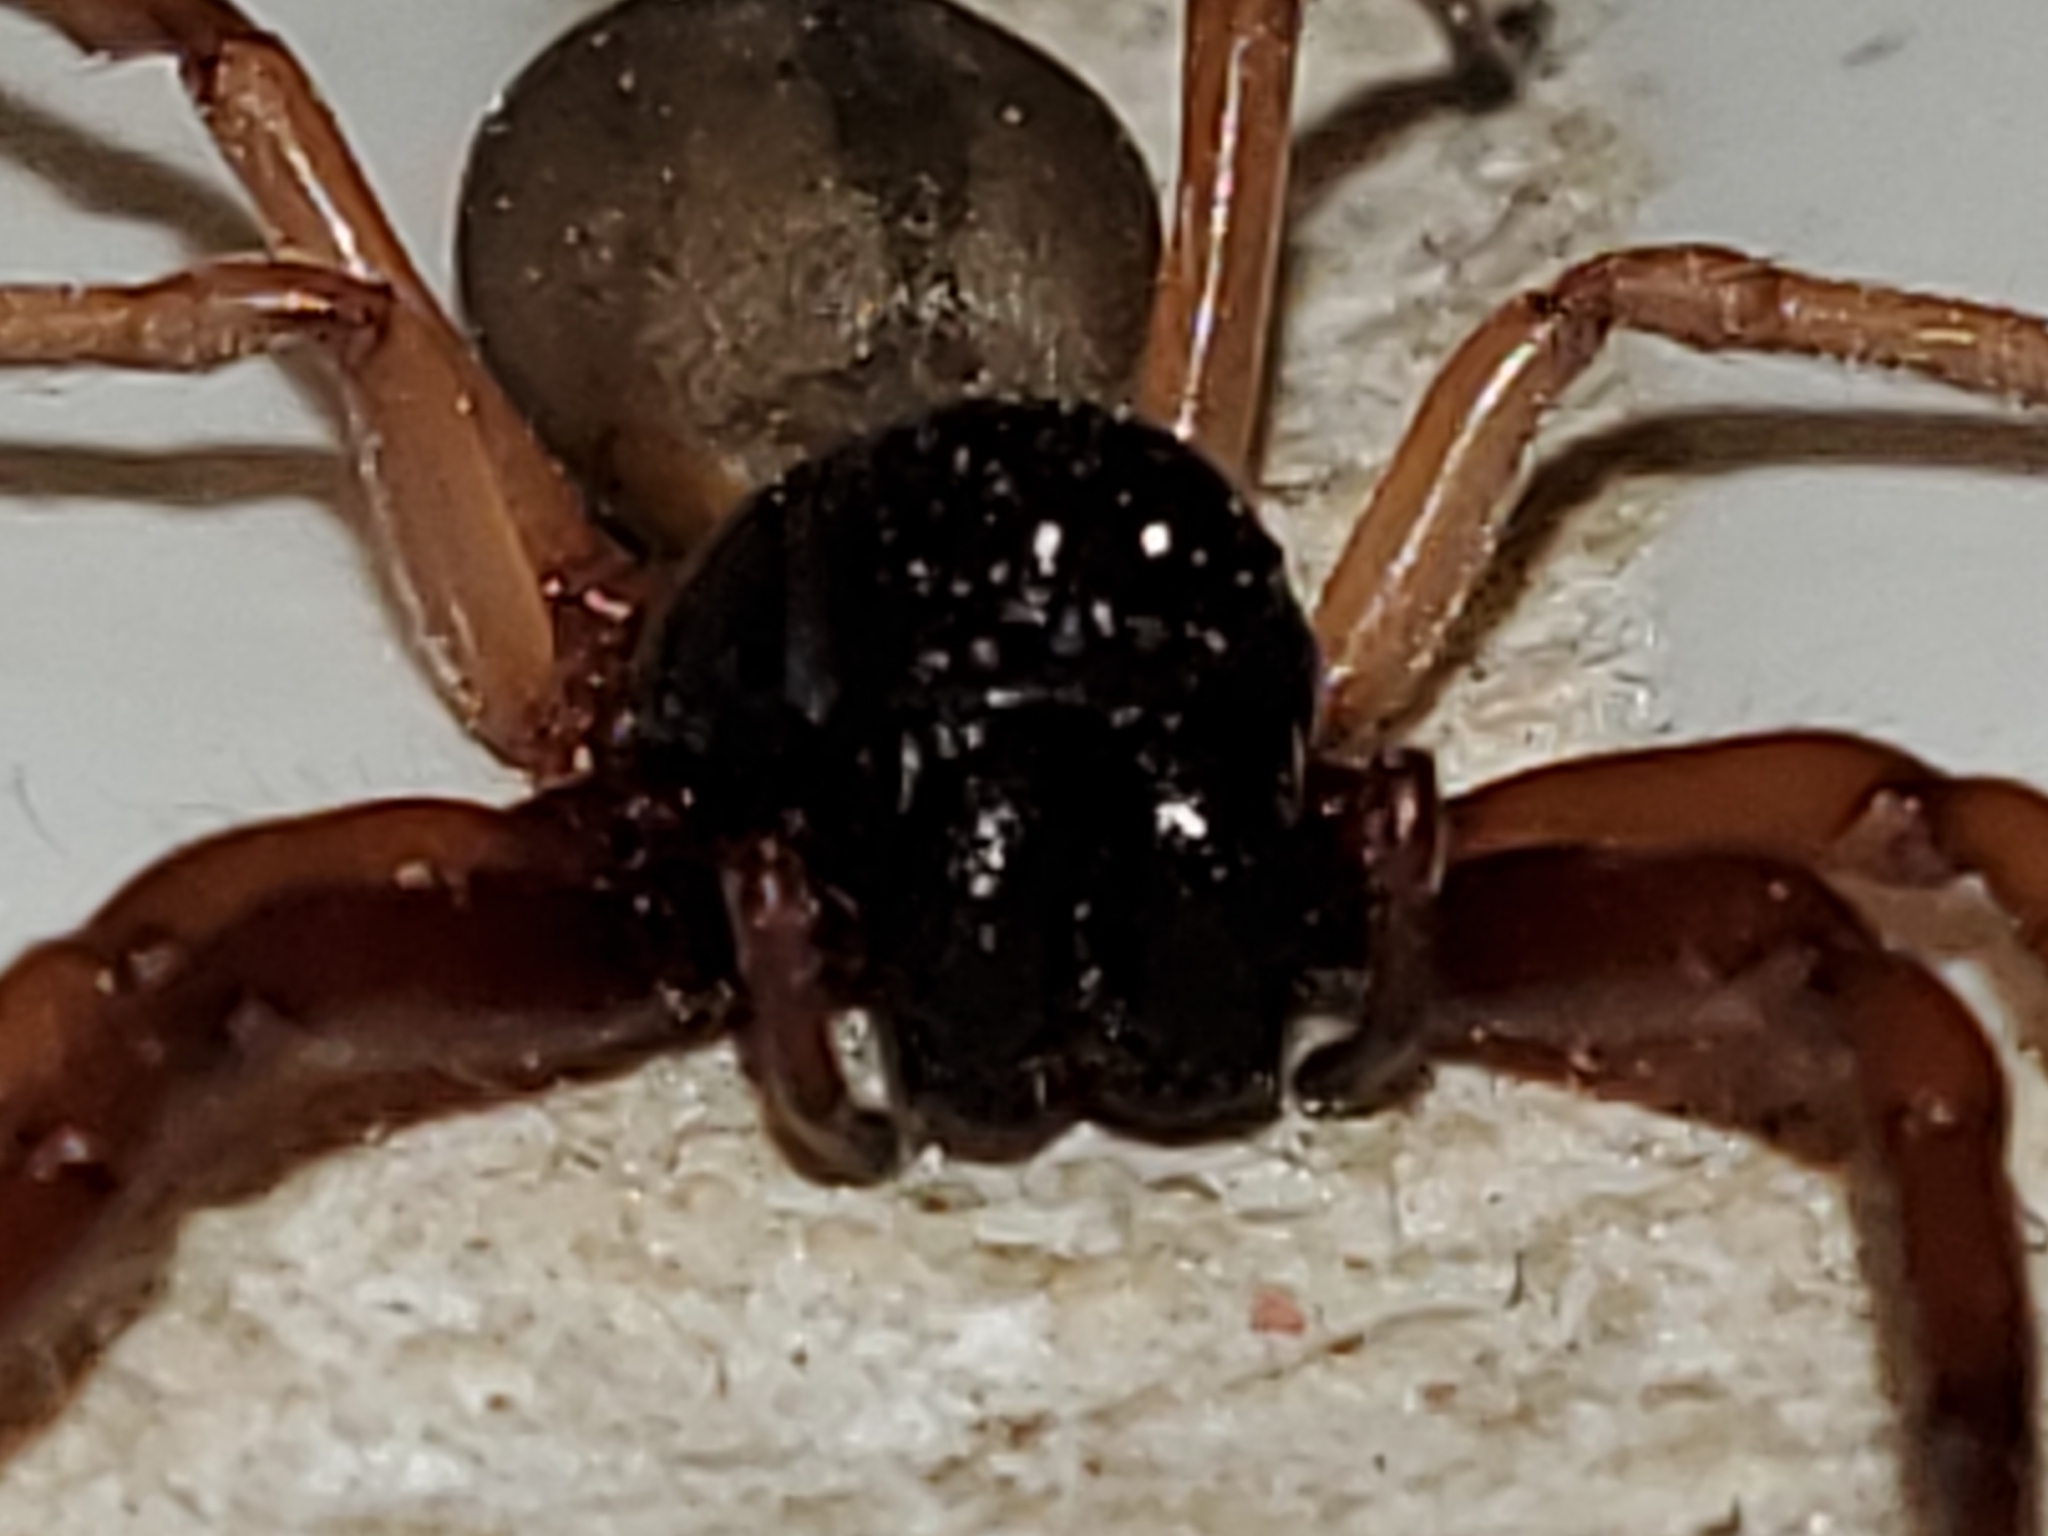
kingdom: Animalia
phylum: Arthropoda
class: Arachnida
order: Araneae
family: Trachelidae
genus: Trachelas
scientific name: Trachelas tranquillus
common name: Broad-faced sac spider
